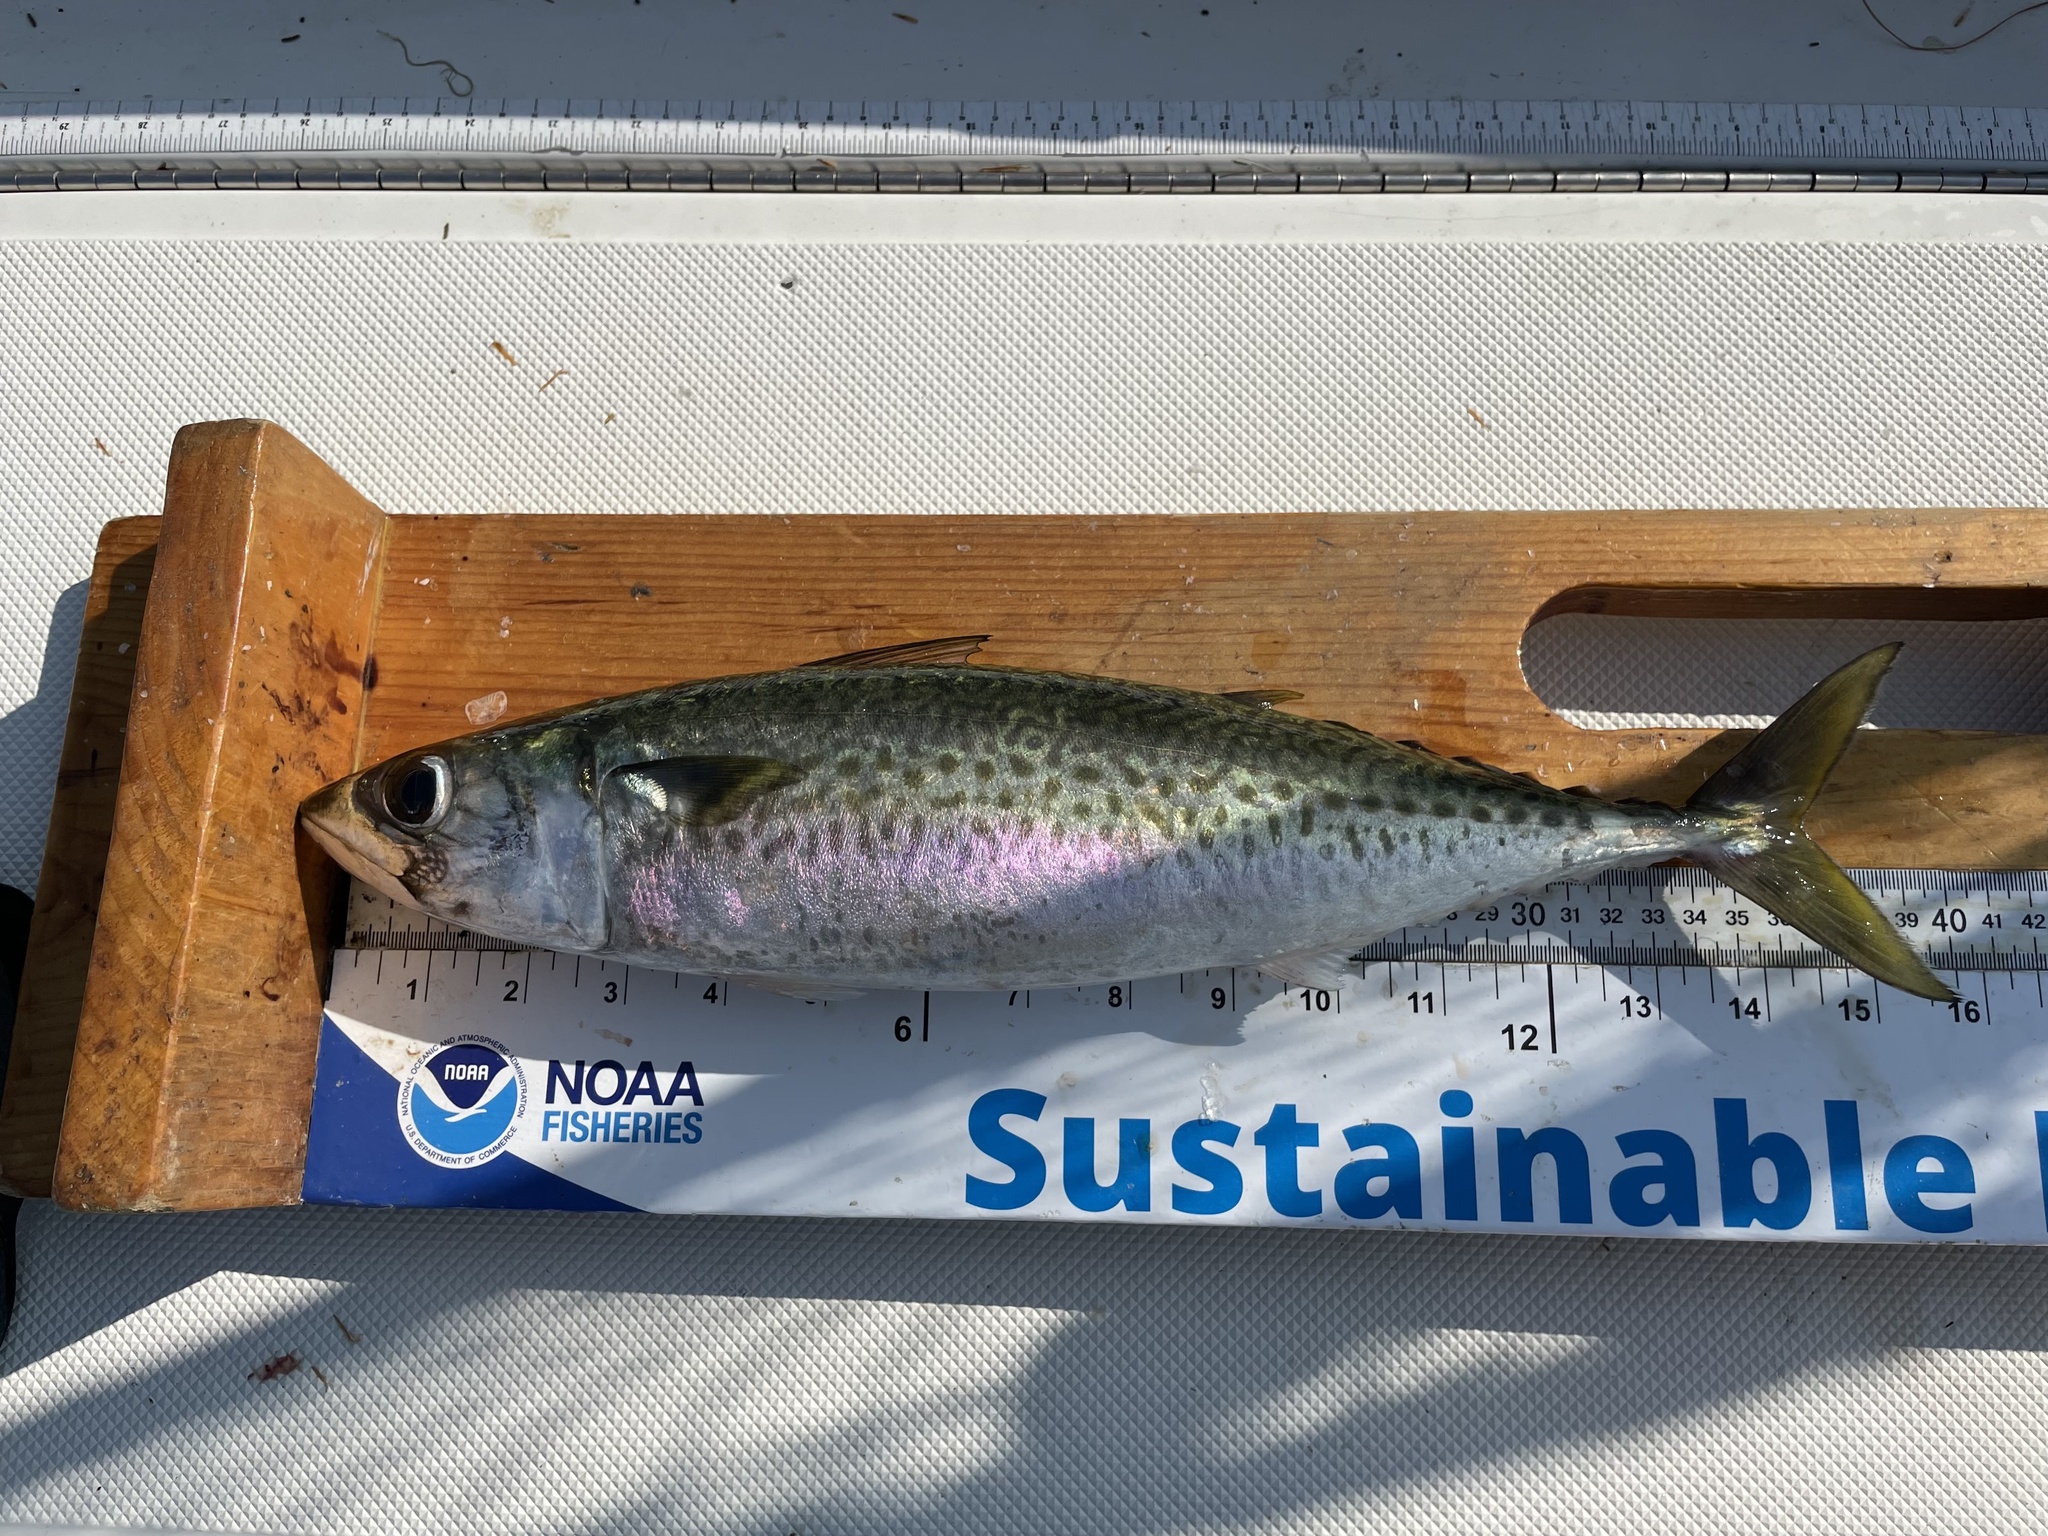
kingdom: Animalia
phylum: Chordata
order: Perciformes
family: Scombridae
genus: Scomber
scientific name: Scomber colias
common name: Atlantic chub mackerel
